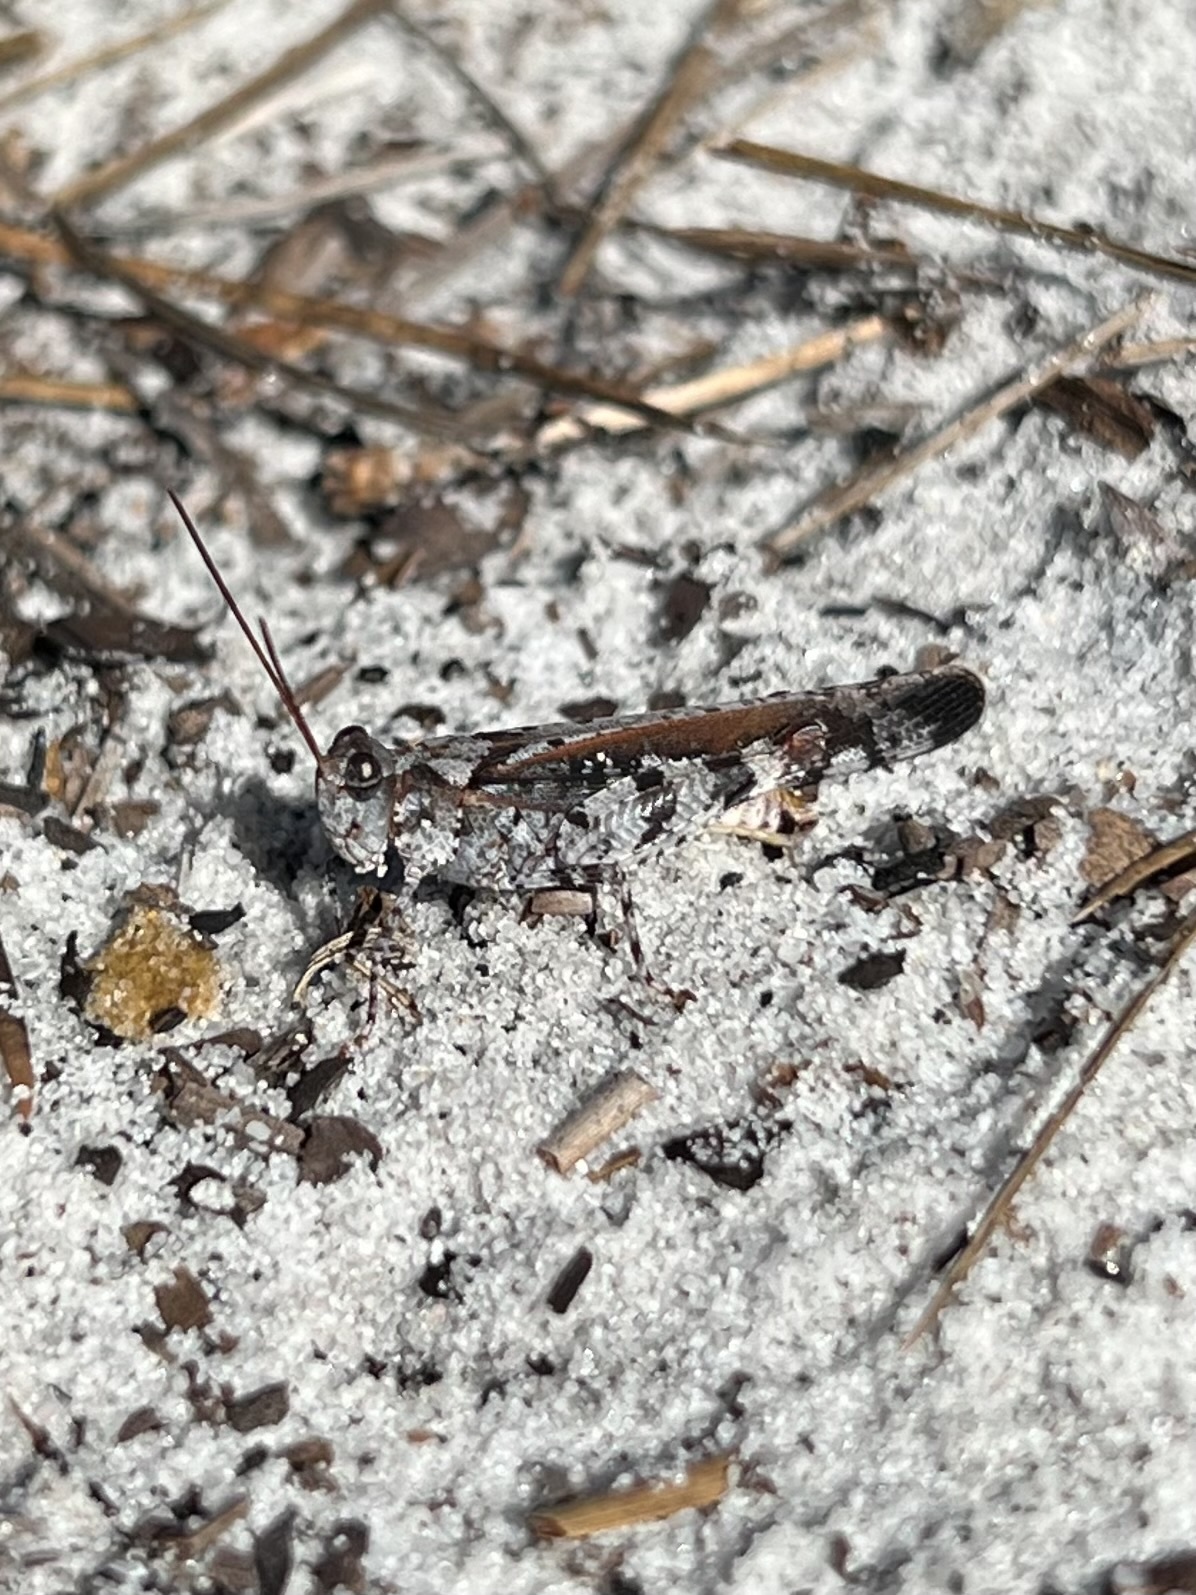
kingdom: Animalia
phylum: Arthropoda
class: Insecta
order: Orthoptera
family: Acrididae
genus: Spharagemon
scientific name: Spharagemon marmoratum
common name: Marbled grasshopper
